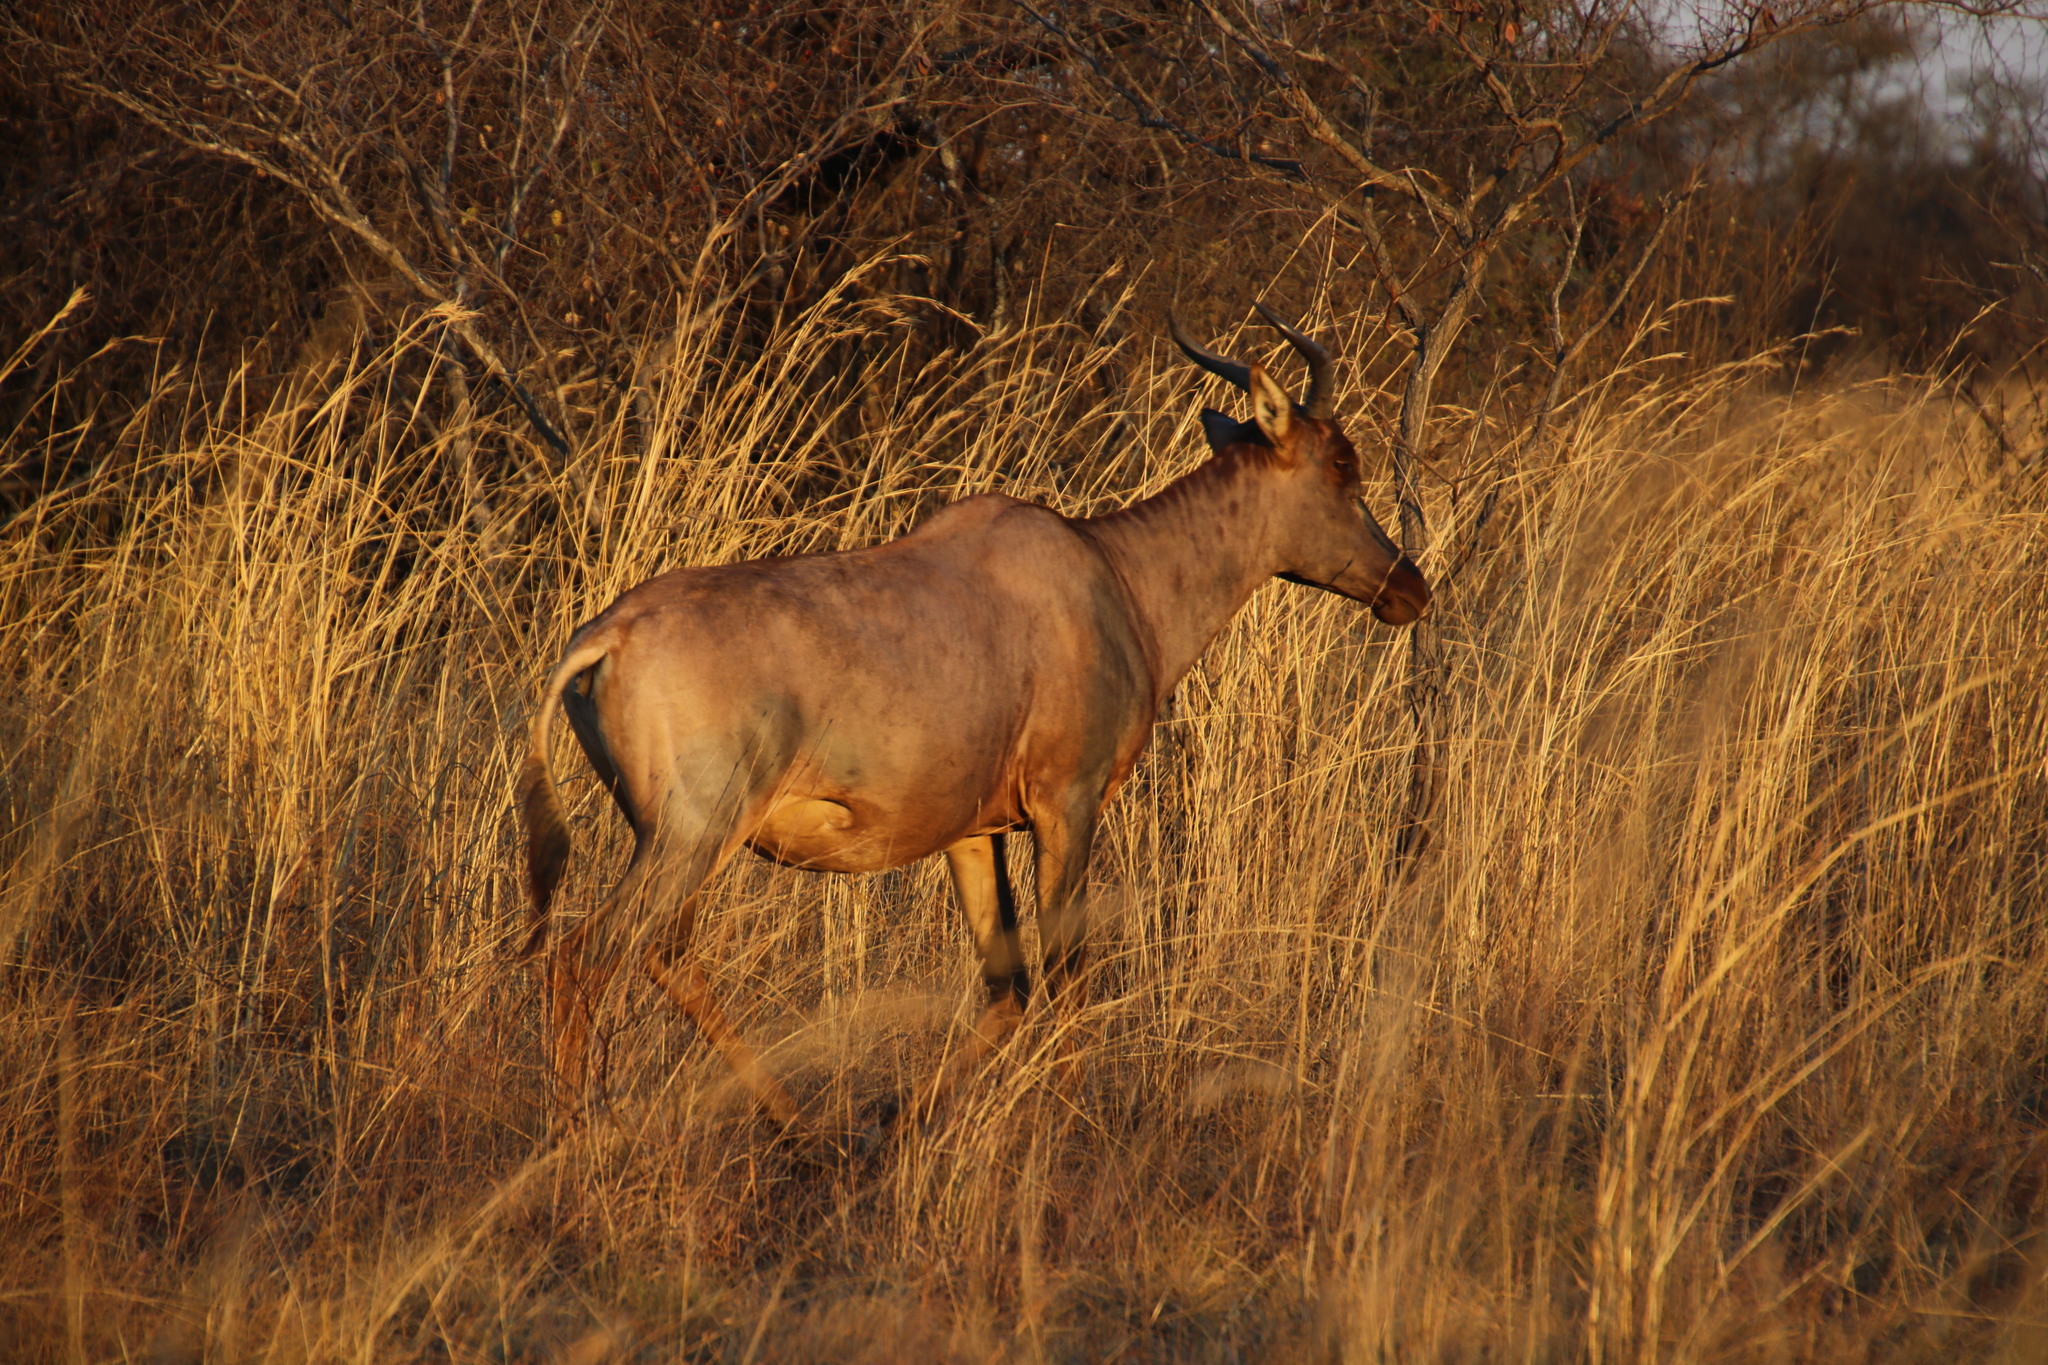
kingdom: Animalia
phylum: Chordata
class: Mammalia
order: Artiodactyla
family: Bovidae
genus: Damaliscus
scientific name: Damaliscus lunatus
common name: Common tsessebe
